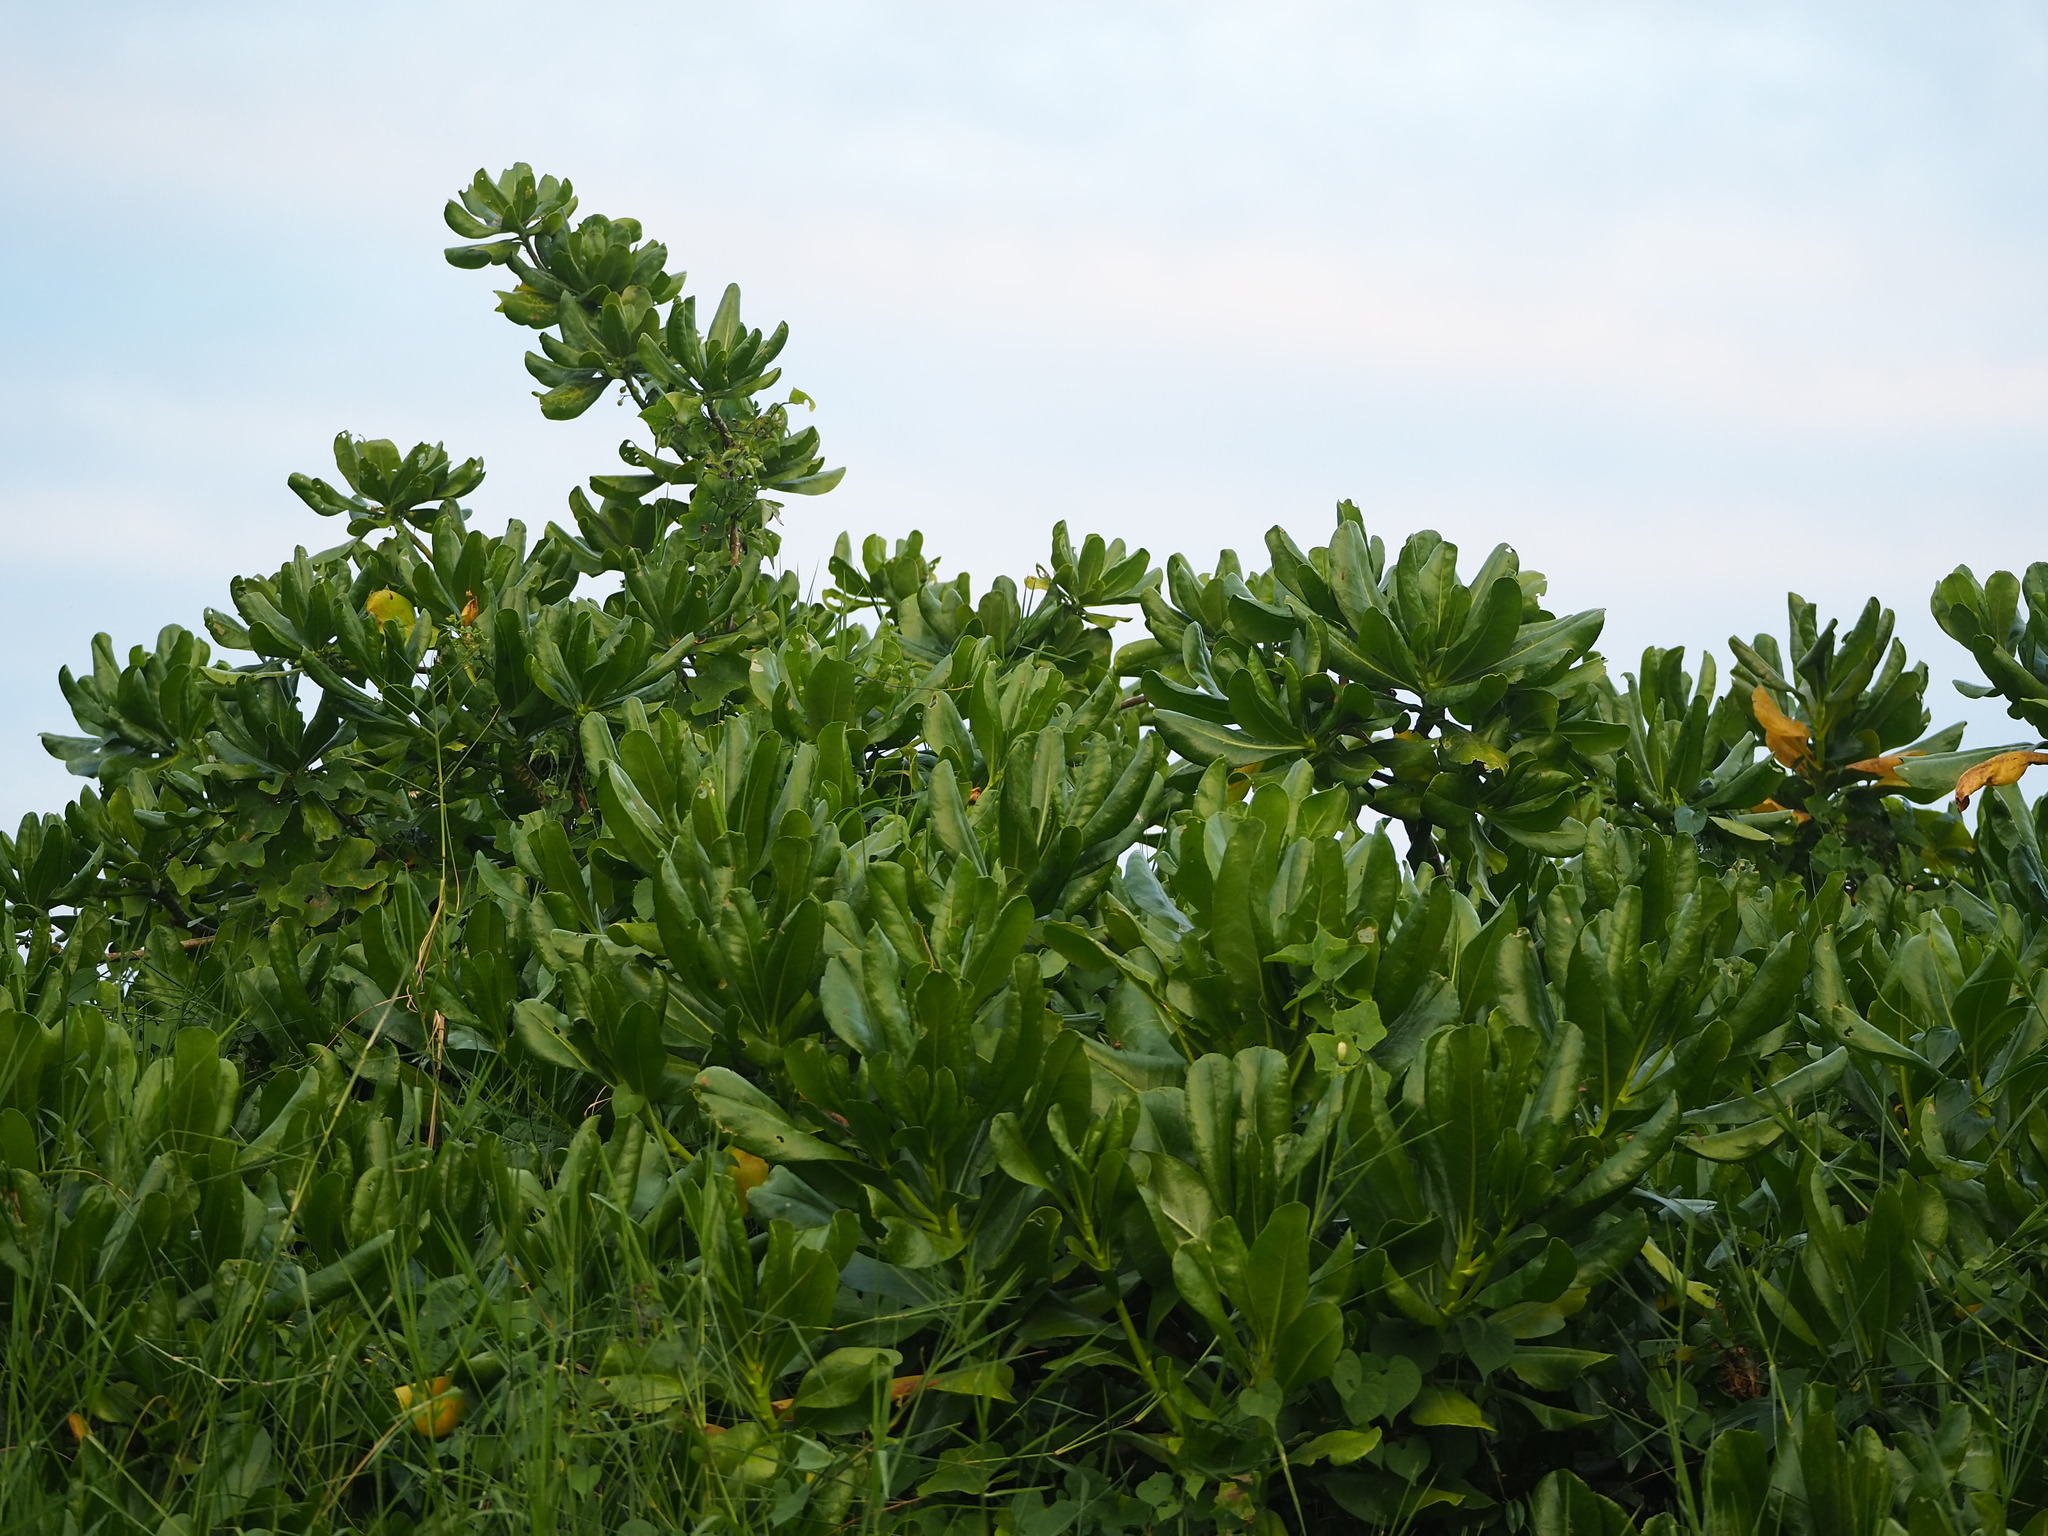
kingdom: Plantae
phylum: Tracheophyta
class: Magnoliopsida
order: Asterales
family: Goodeniaceae
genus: Scaevola
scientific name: Scaevola taccada
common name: Sea lettucetree
